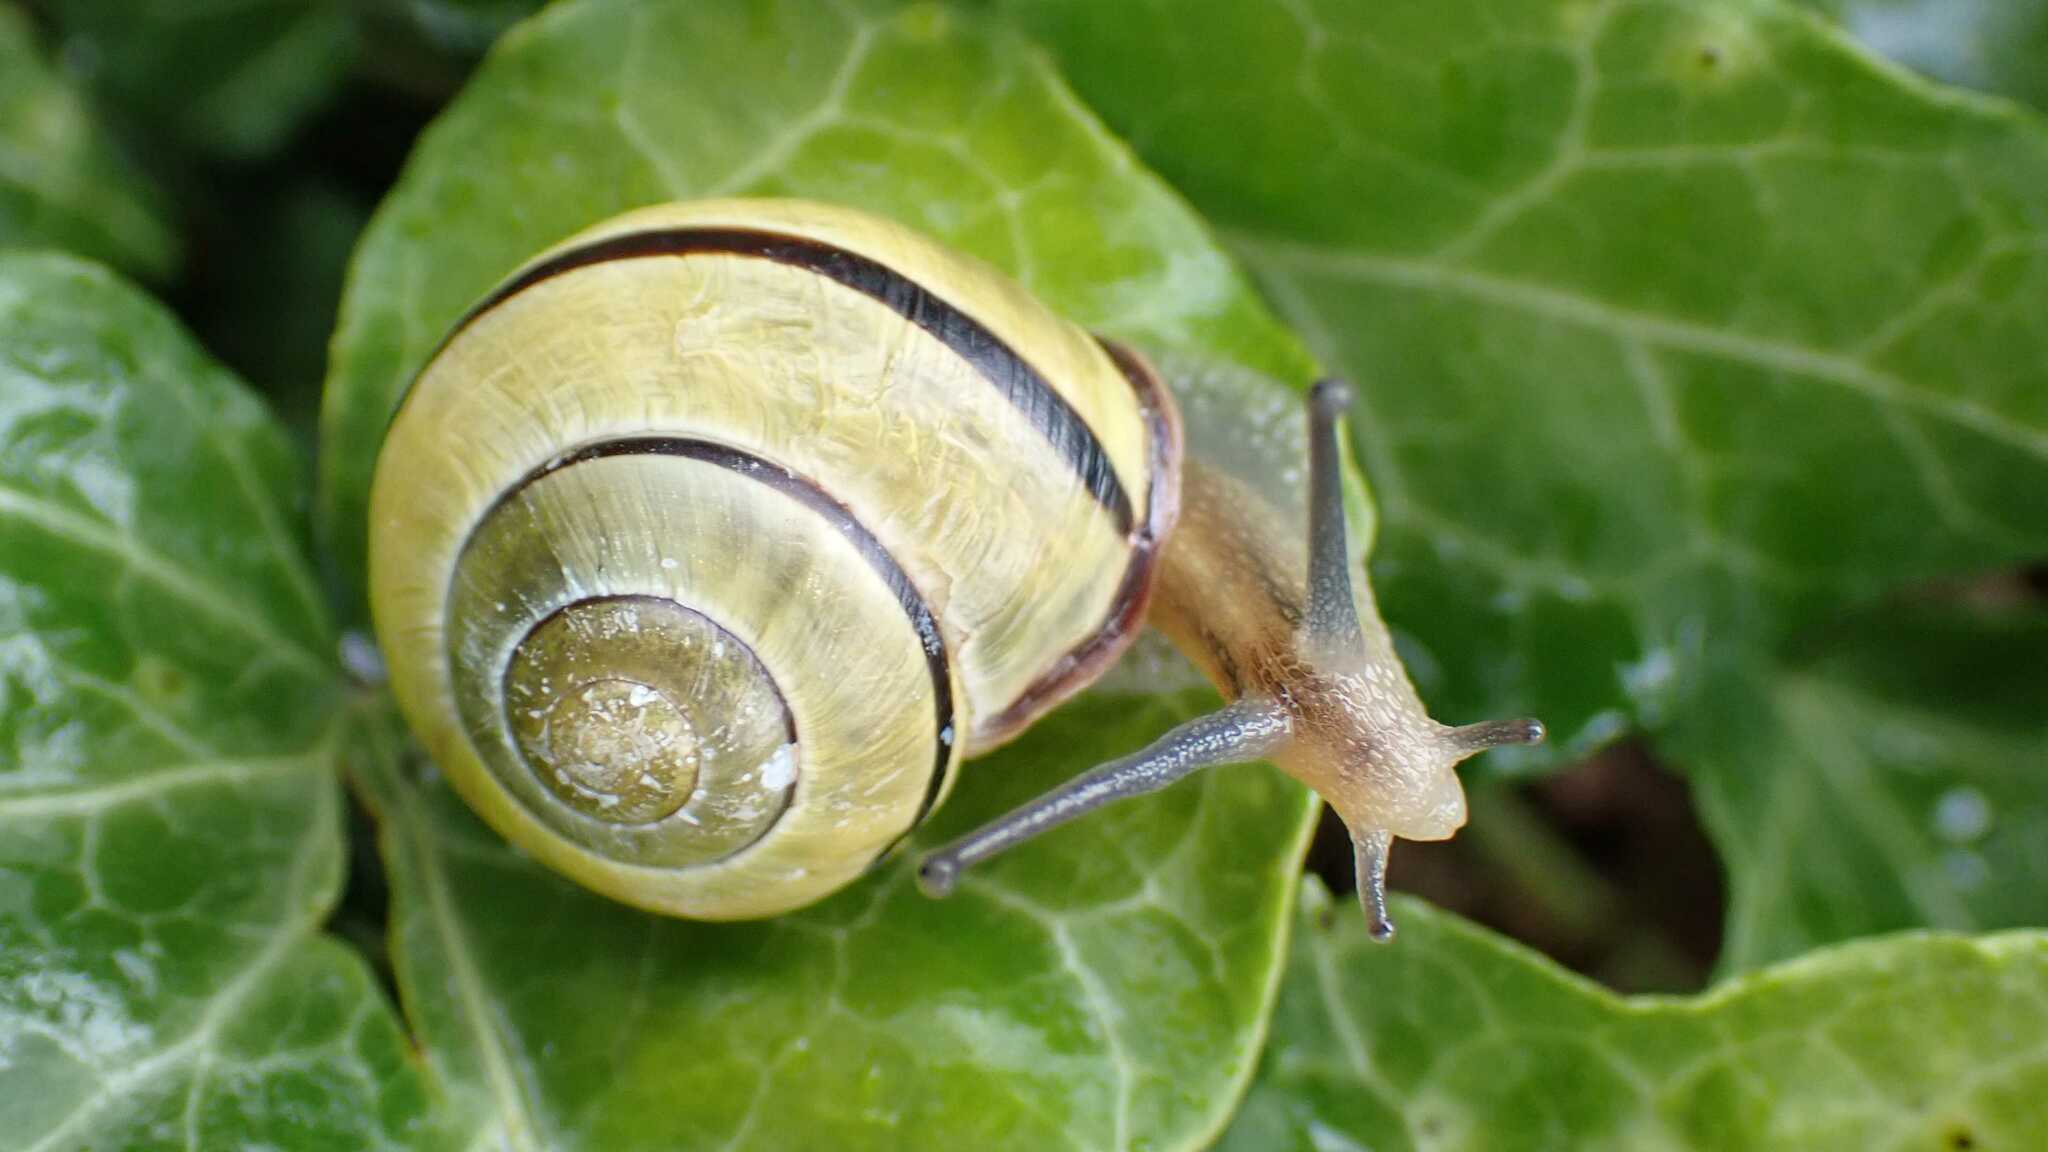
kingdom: Animalia
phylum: Mollusca
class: Gastropoda
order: Stylommatophora
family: Helicidae
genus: Cepaea
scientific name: Cepaea nemoralis
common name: Grovesnail
